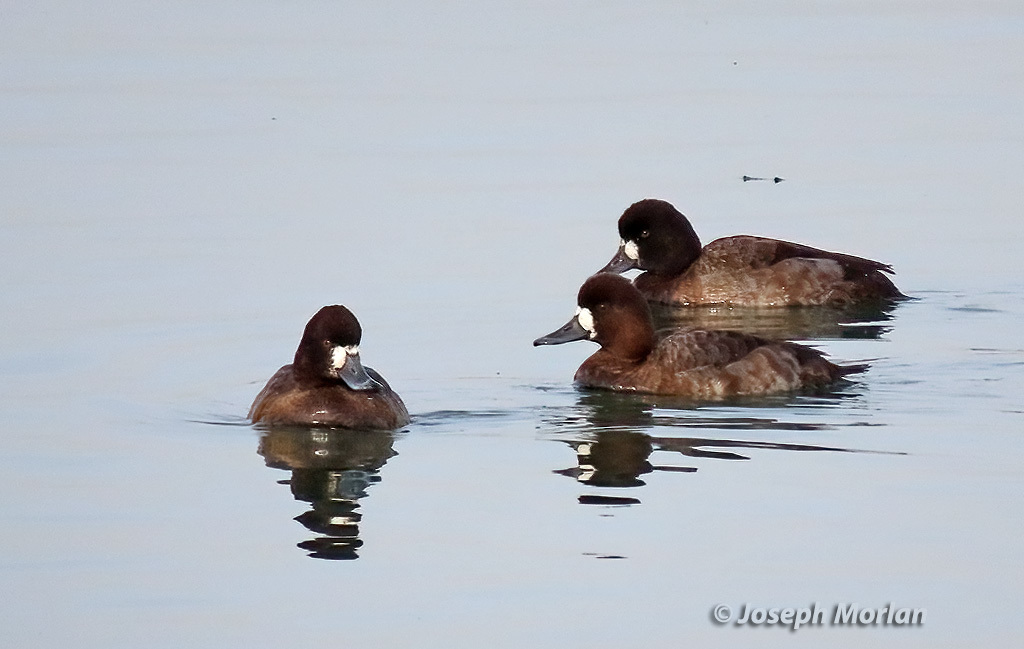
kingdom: Animalia
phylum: Chordata
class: Aves
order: Anseriformes
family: Anatidae
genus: Aythya
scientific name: Aythya affinis
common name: Lesser scaup
